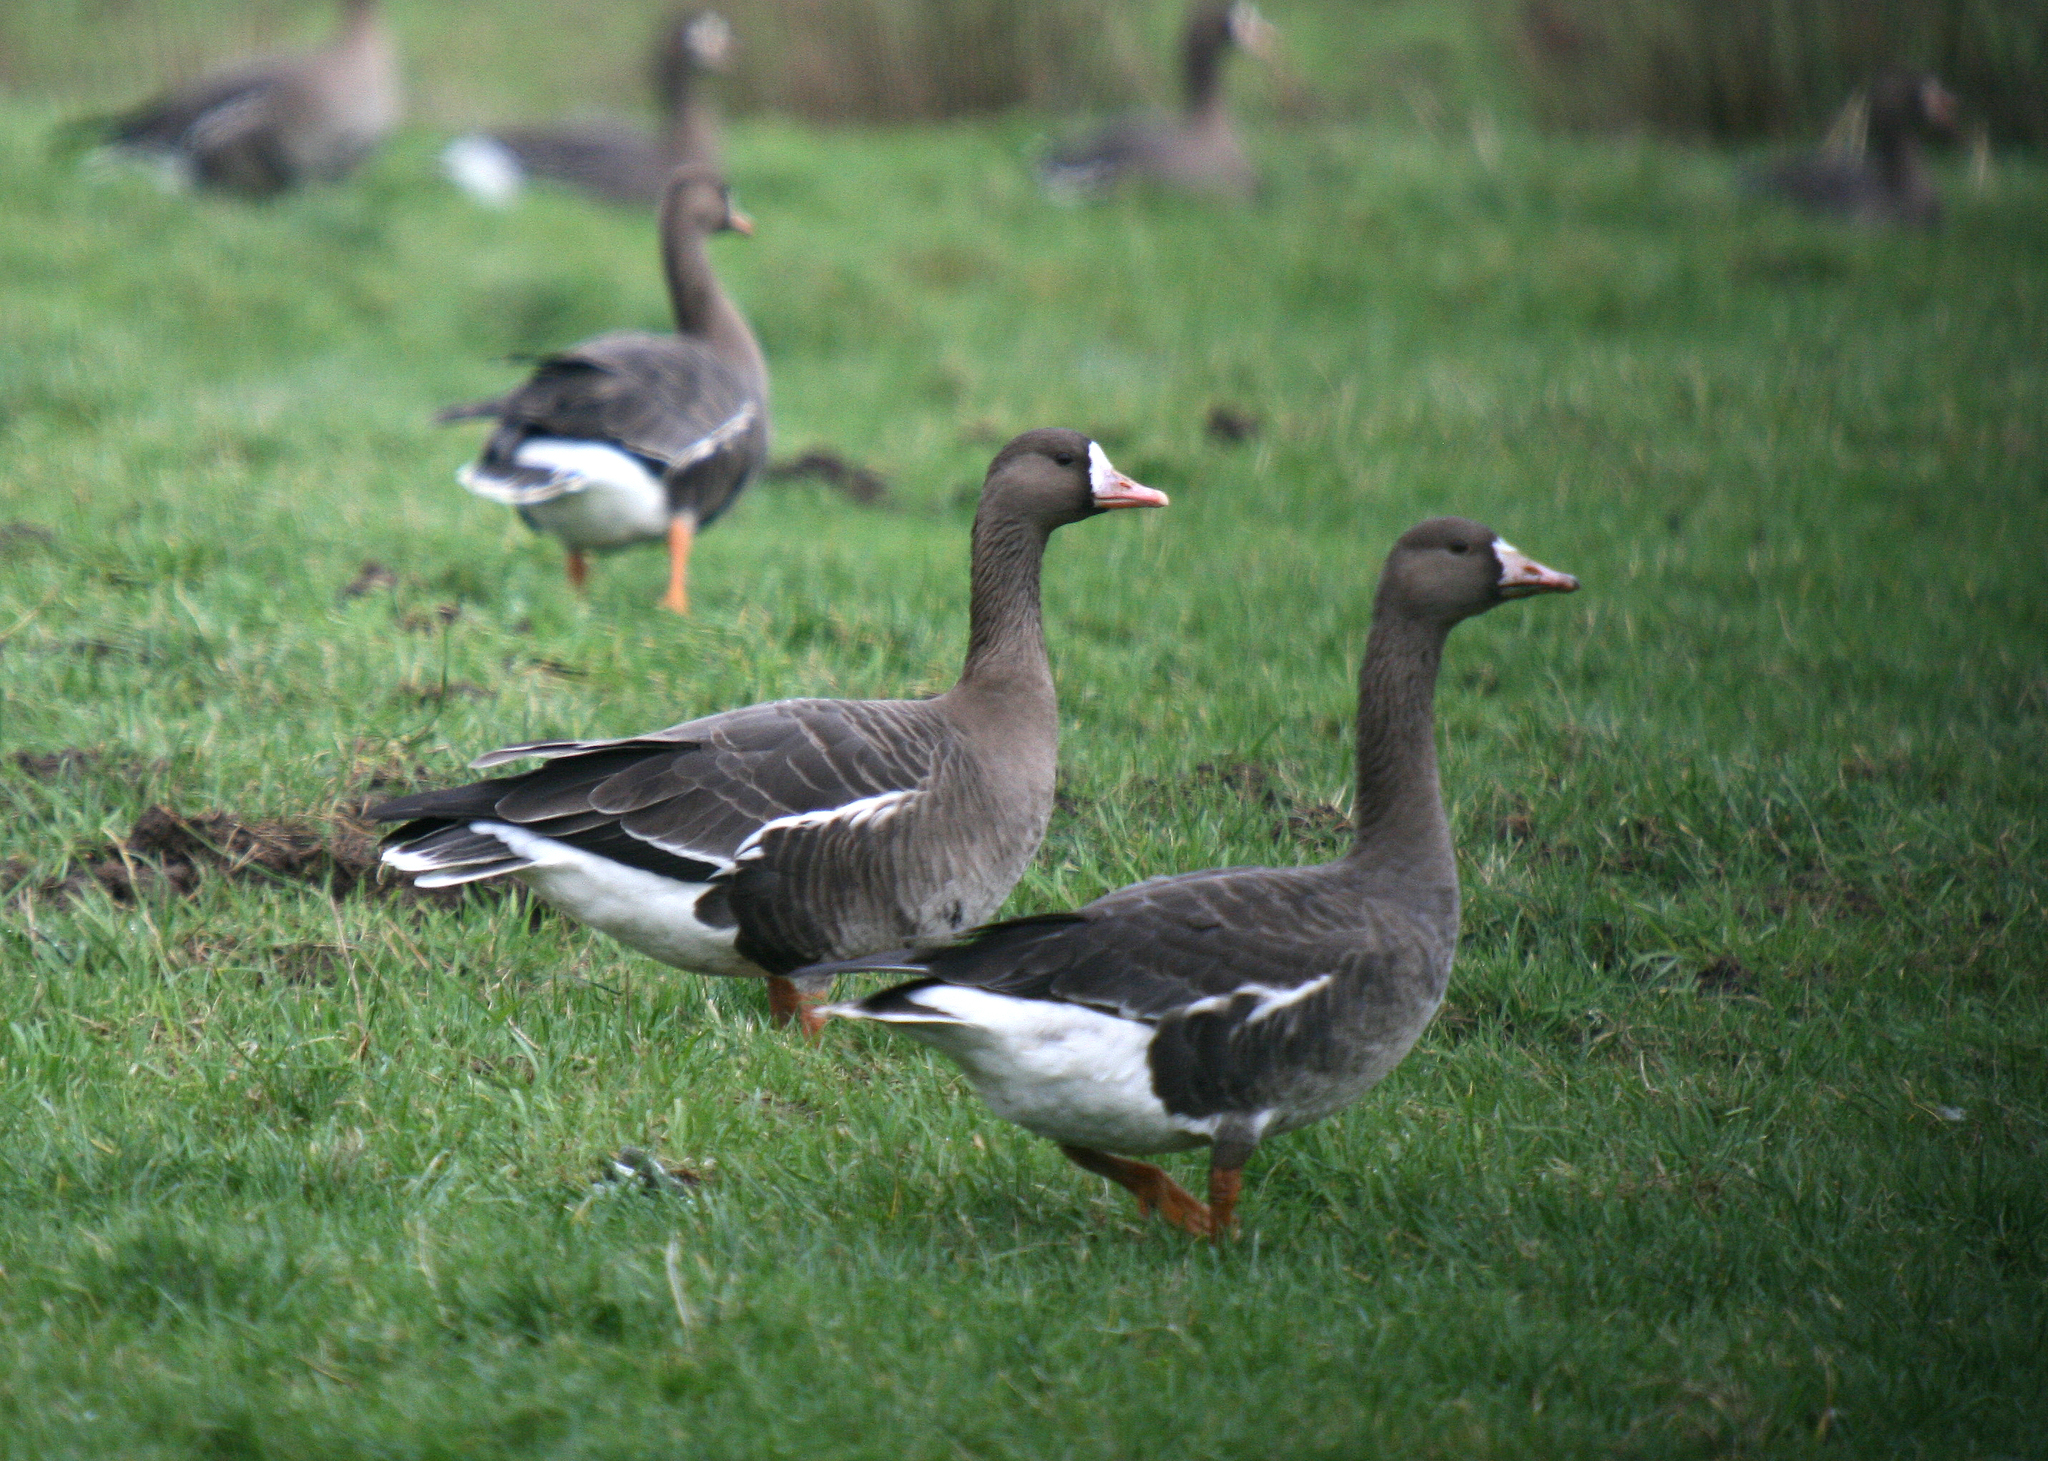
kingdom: Animalia
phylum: Chordata
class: Aves
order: Anseriformes
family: Anatidae
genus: Anser
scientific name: Anser albifrons
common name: Greater white-fronted goose
